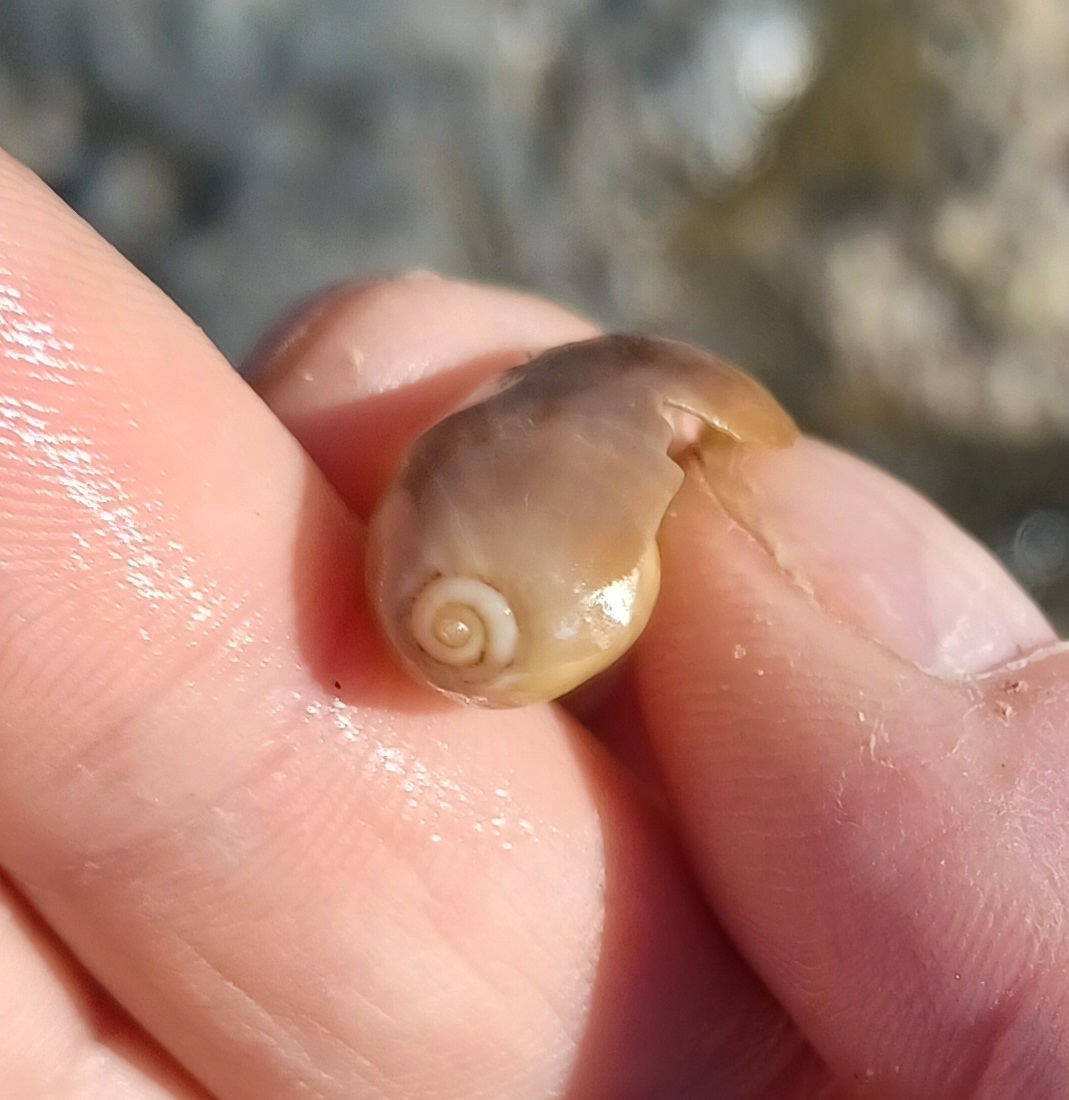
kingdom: Animalia
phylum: Mollusca
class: Gastropoda
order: Littorinimorpha
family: Cypraeidae
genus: Naria
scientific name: Naria erosa
